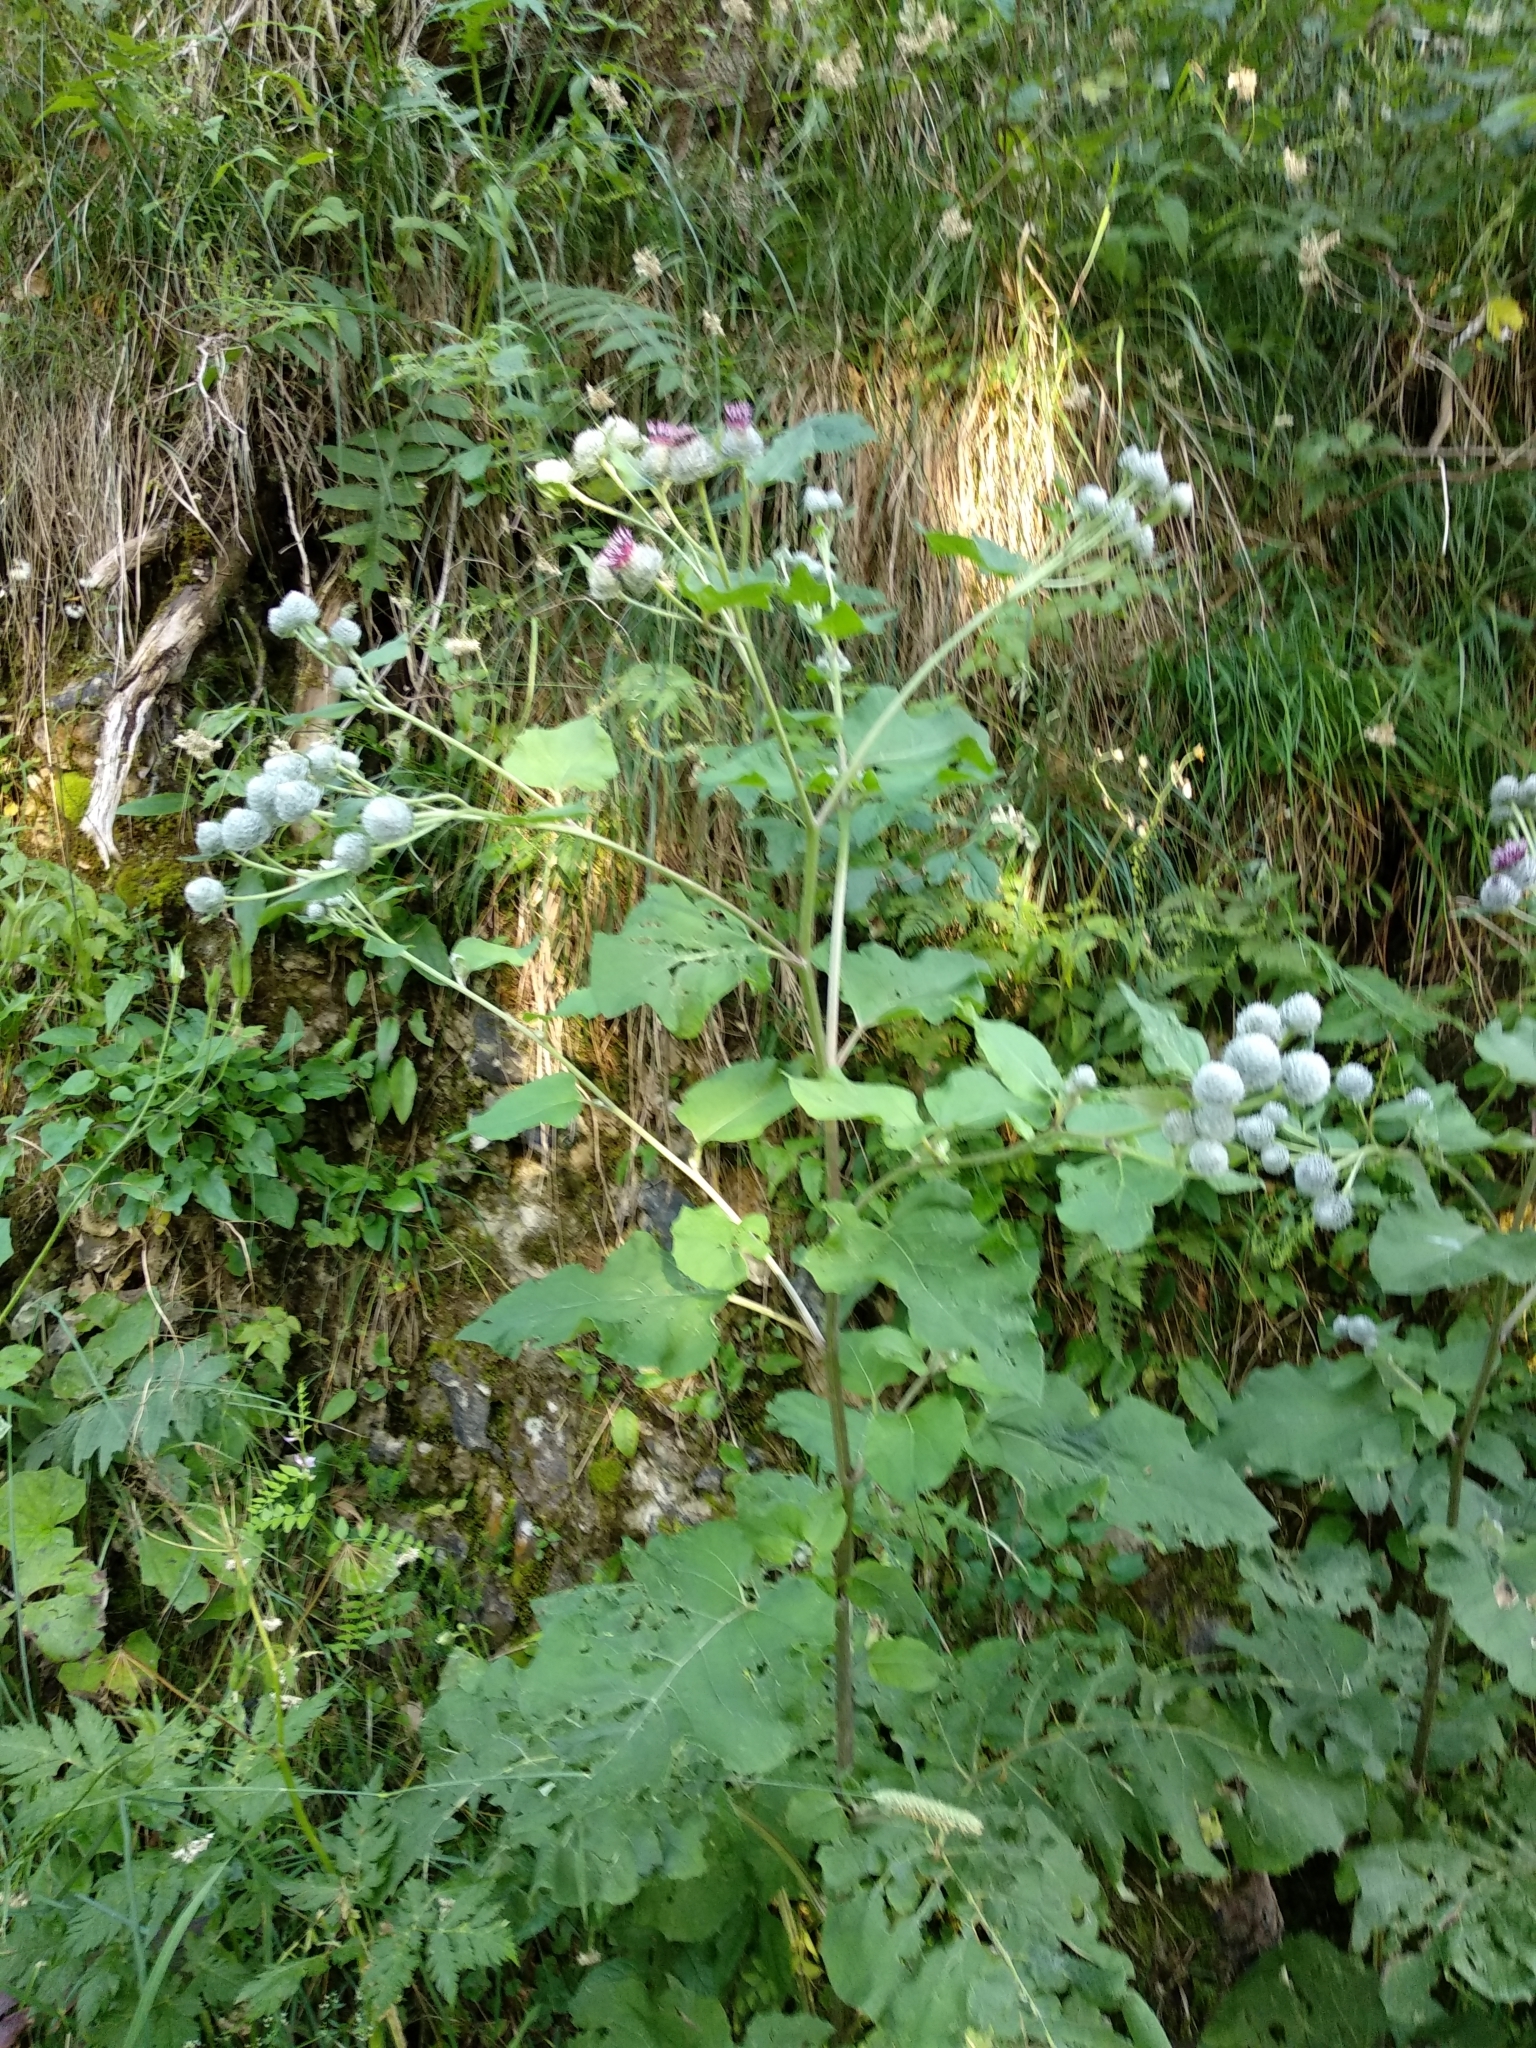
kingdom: Plantae
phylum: Tracheophyta
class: Magnoliopsida
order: Asterales
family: Asteraceae
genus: Arctium
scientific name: Arctium tomentosum
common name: Woolly burdock
